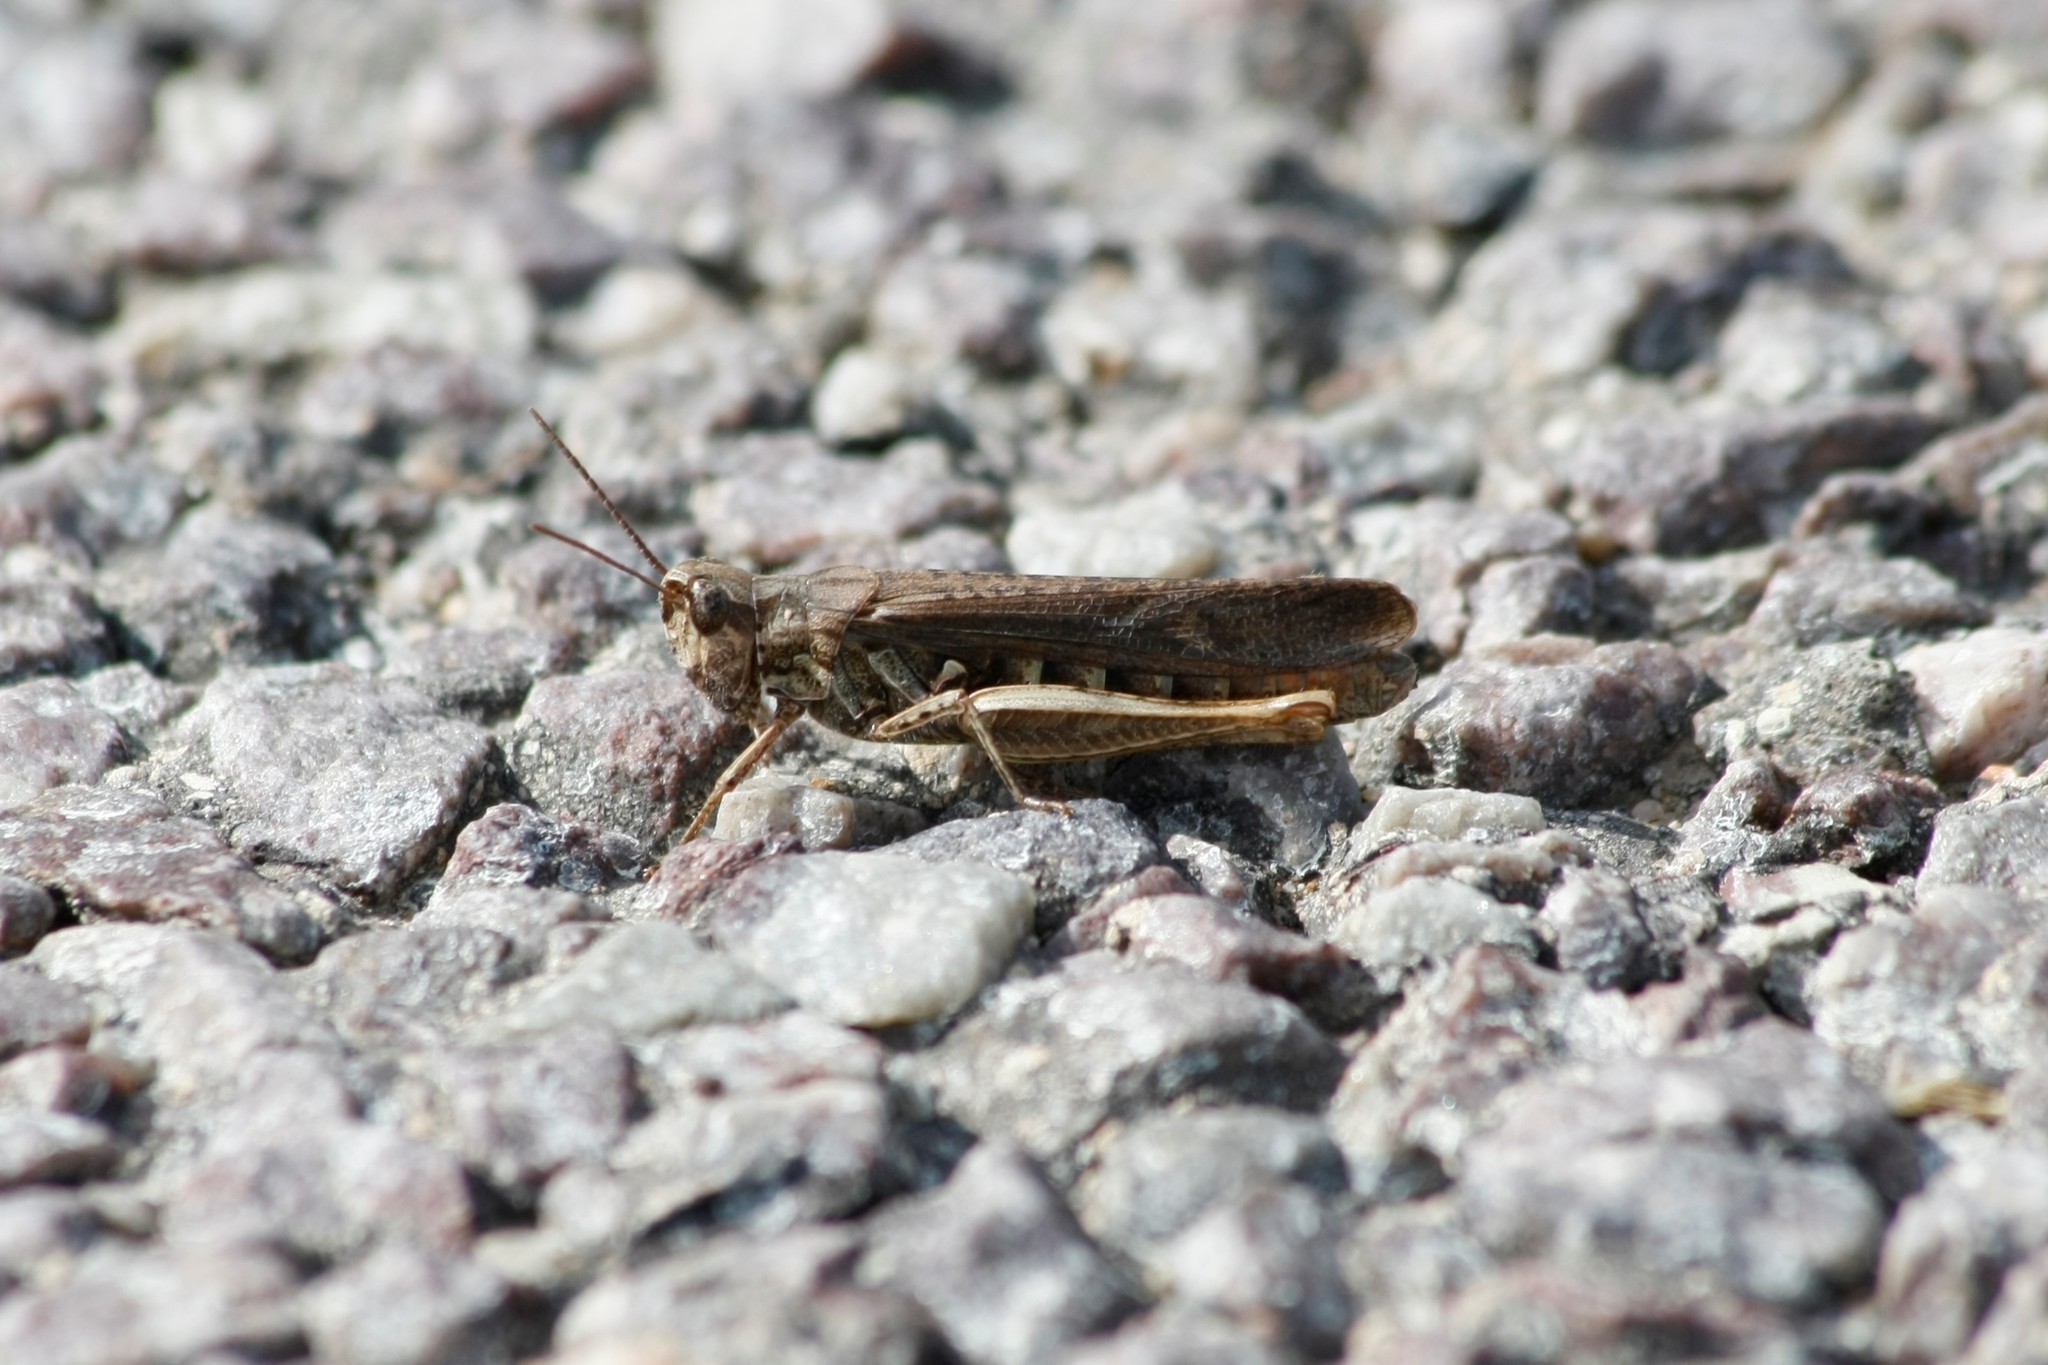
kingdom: Animalia
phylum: Arthropoda
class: Insecta
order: Orthoptera
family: Acrididae
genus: Chorthippus
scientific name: Chorthippus brunneus
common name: Field grasshopper
